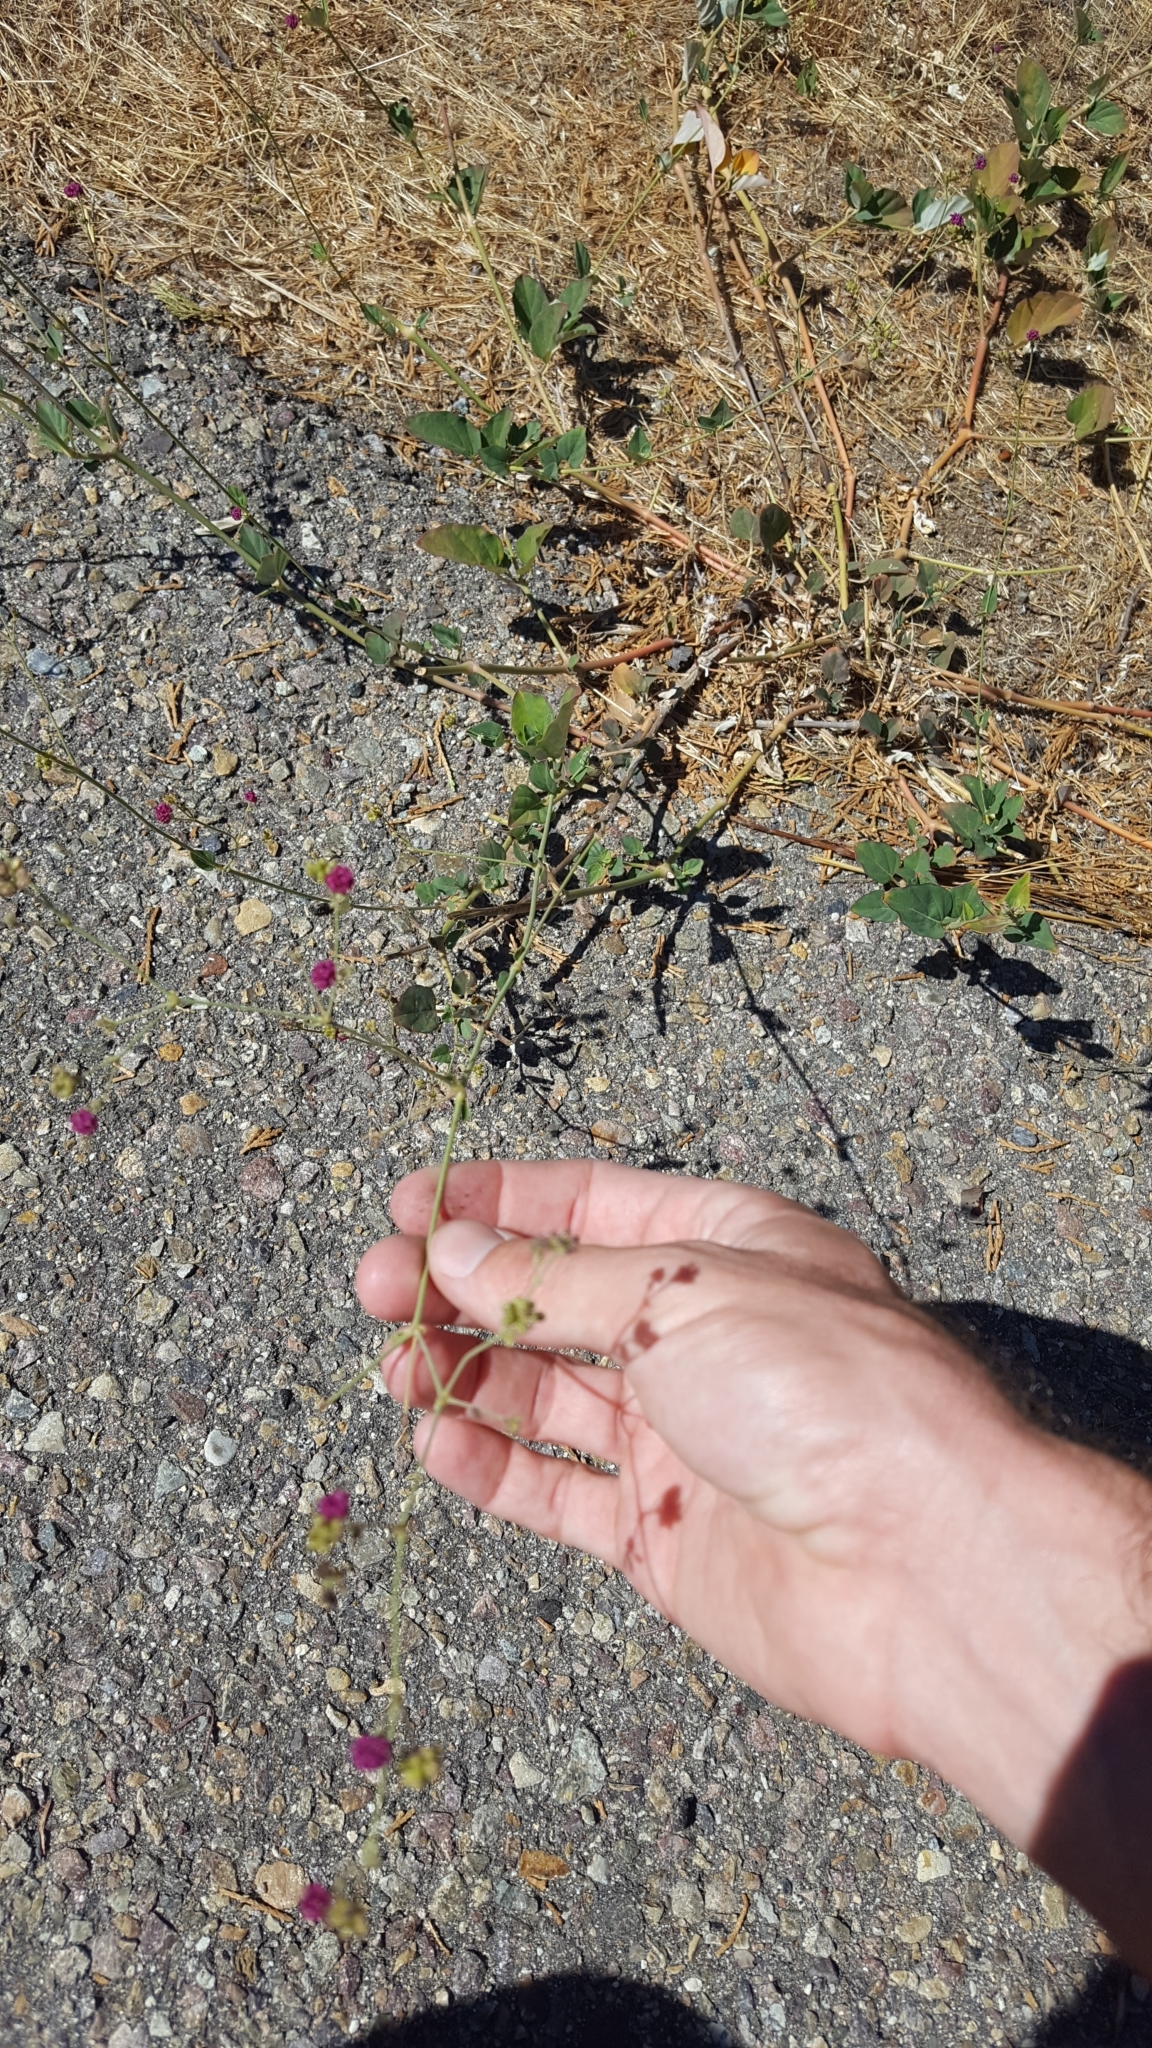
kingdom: Plantae
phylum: Tracheophyta
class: Magnoliopsida
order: Caryophyllales
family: Nyctaginaceae
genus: Boerhavia
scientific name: Boerhavia coccinea
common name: Scarlet spiderling
